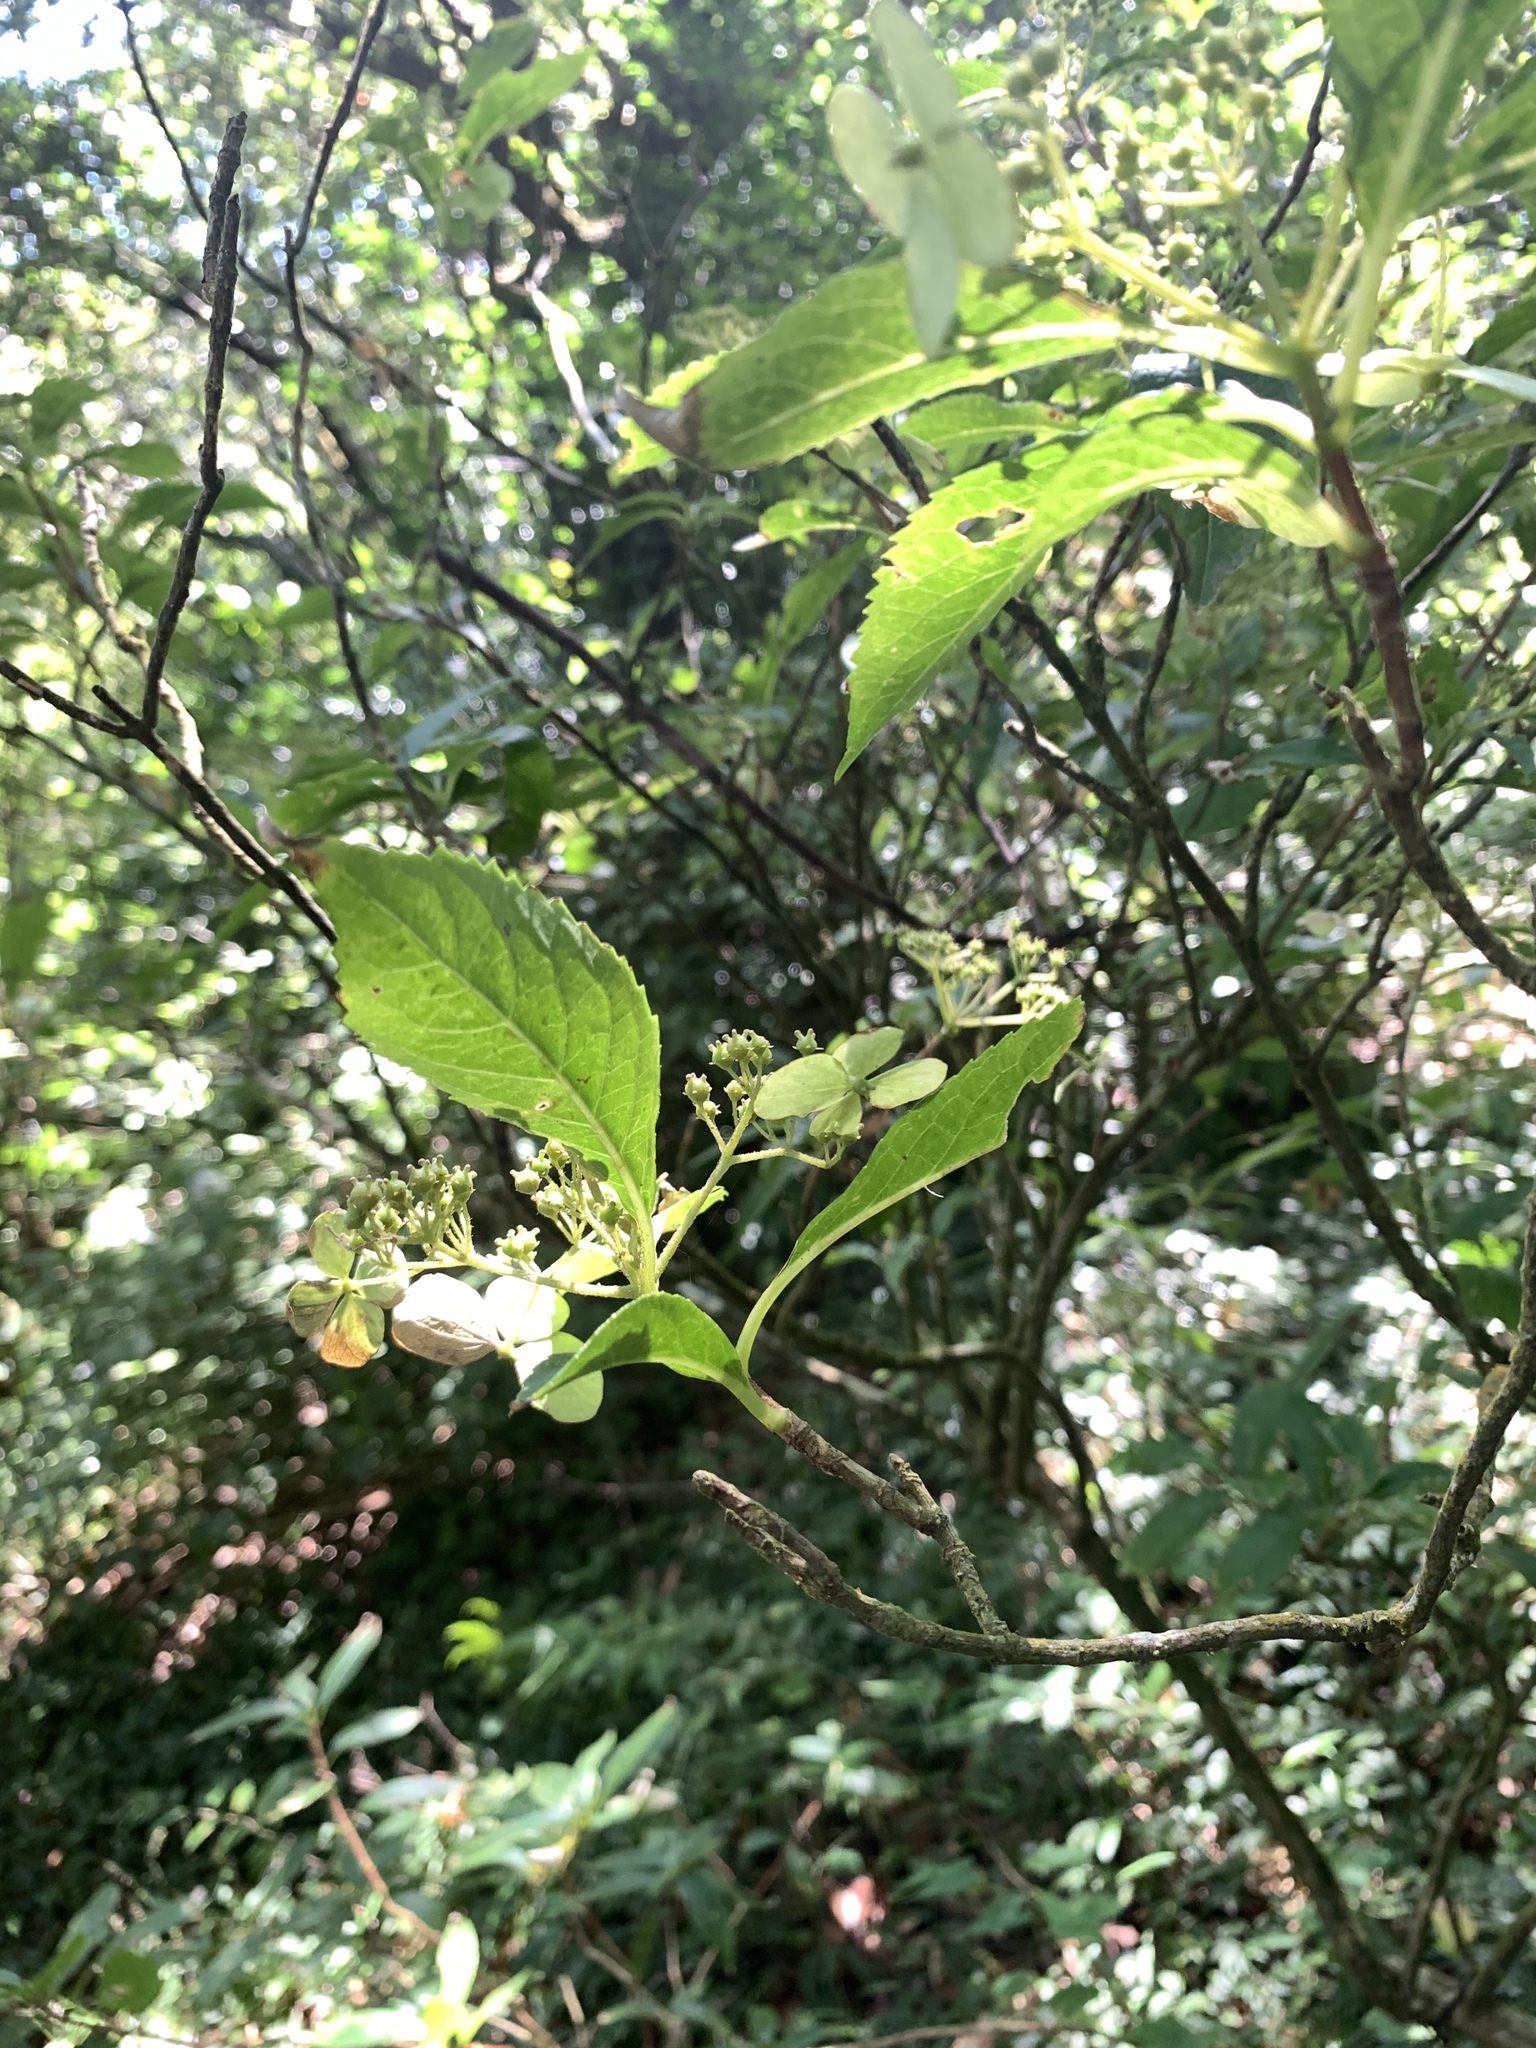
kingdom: Plantae
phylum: Tracheophyta
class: Magnoliopsida
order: Cornales
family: Hydrangeaceae
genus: Hydrangea
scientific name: Hydrangea chinensis
